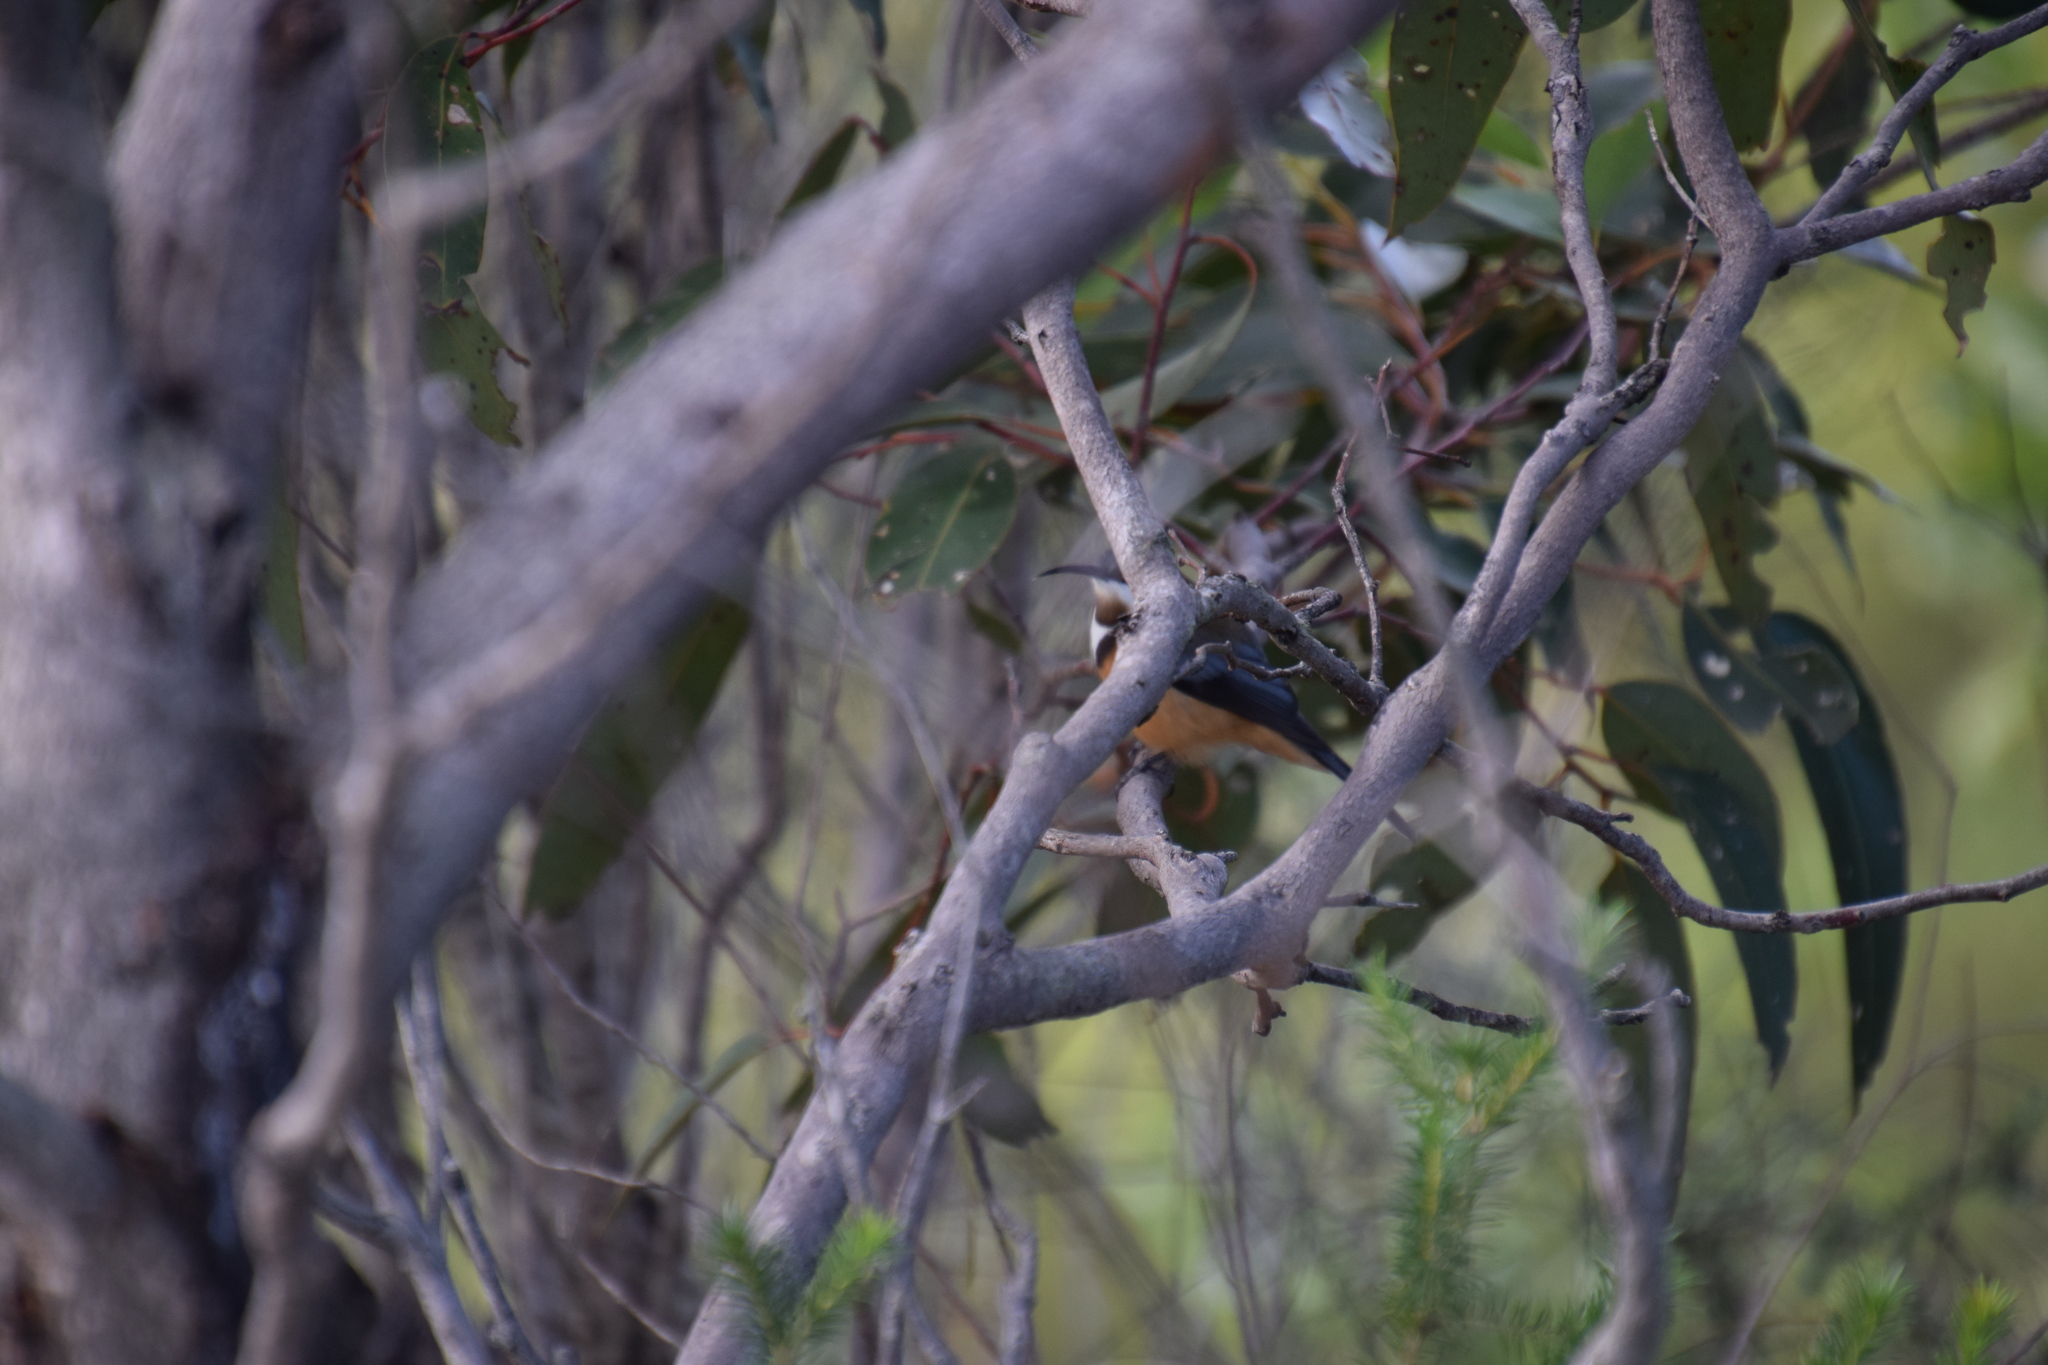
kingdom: Animalia
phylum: Chordata
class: Aves
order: Passeriformes
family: Meliphagidae
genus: Acanthorhynchus
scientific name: Acanthorhynchus tenuirostris
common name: Eastern spinebill
